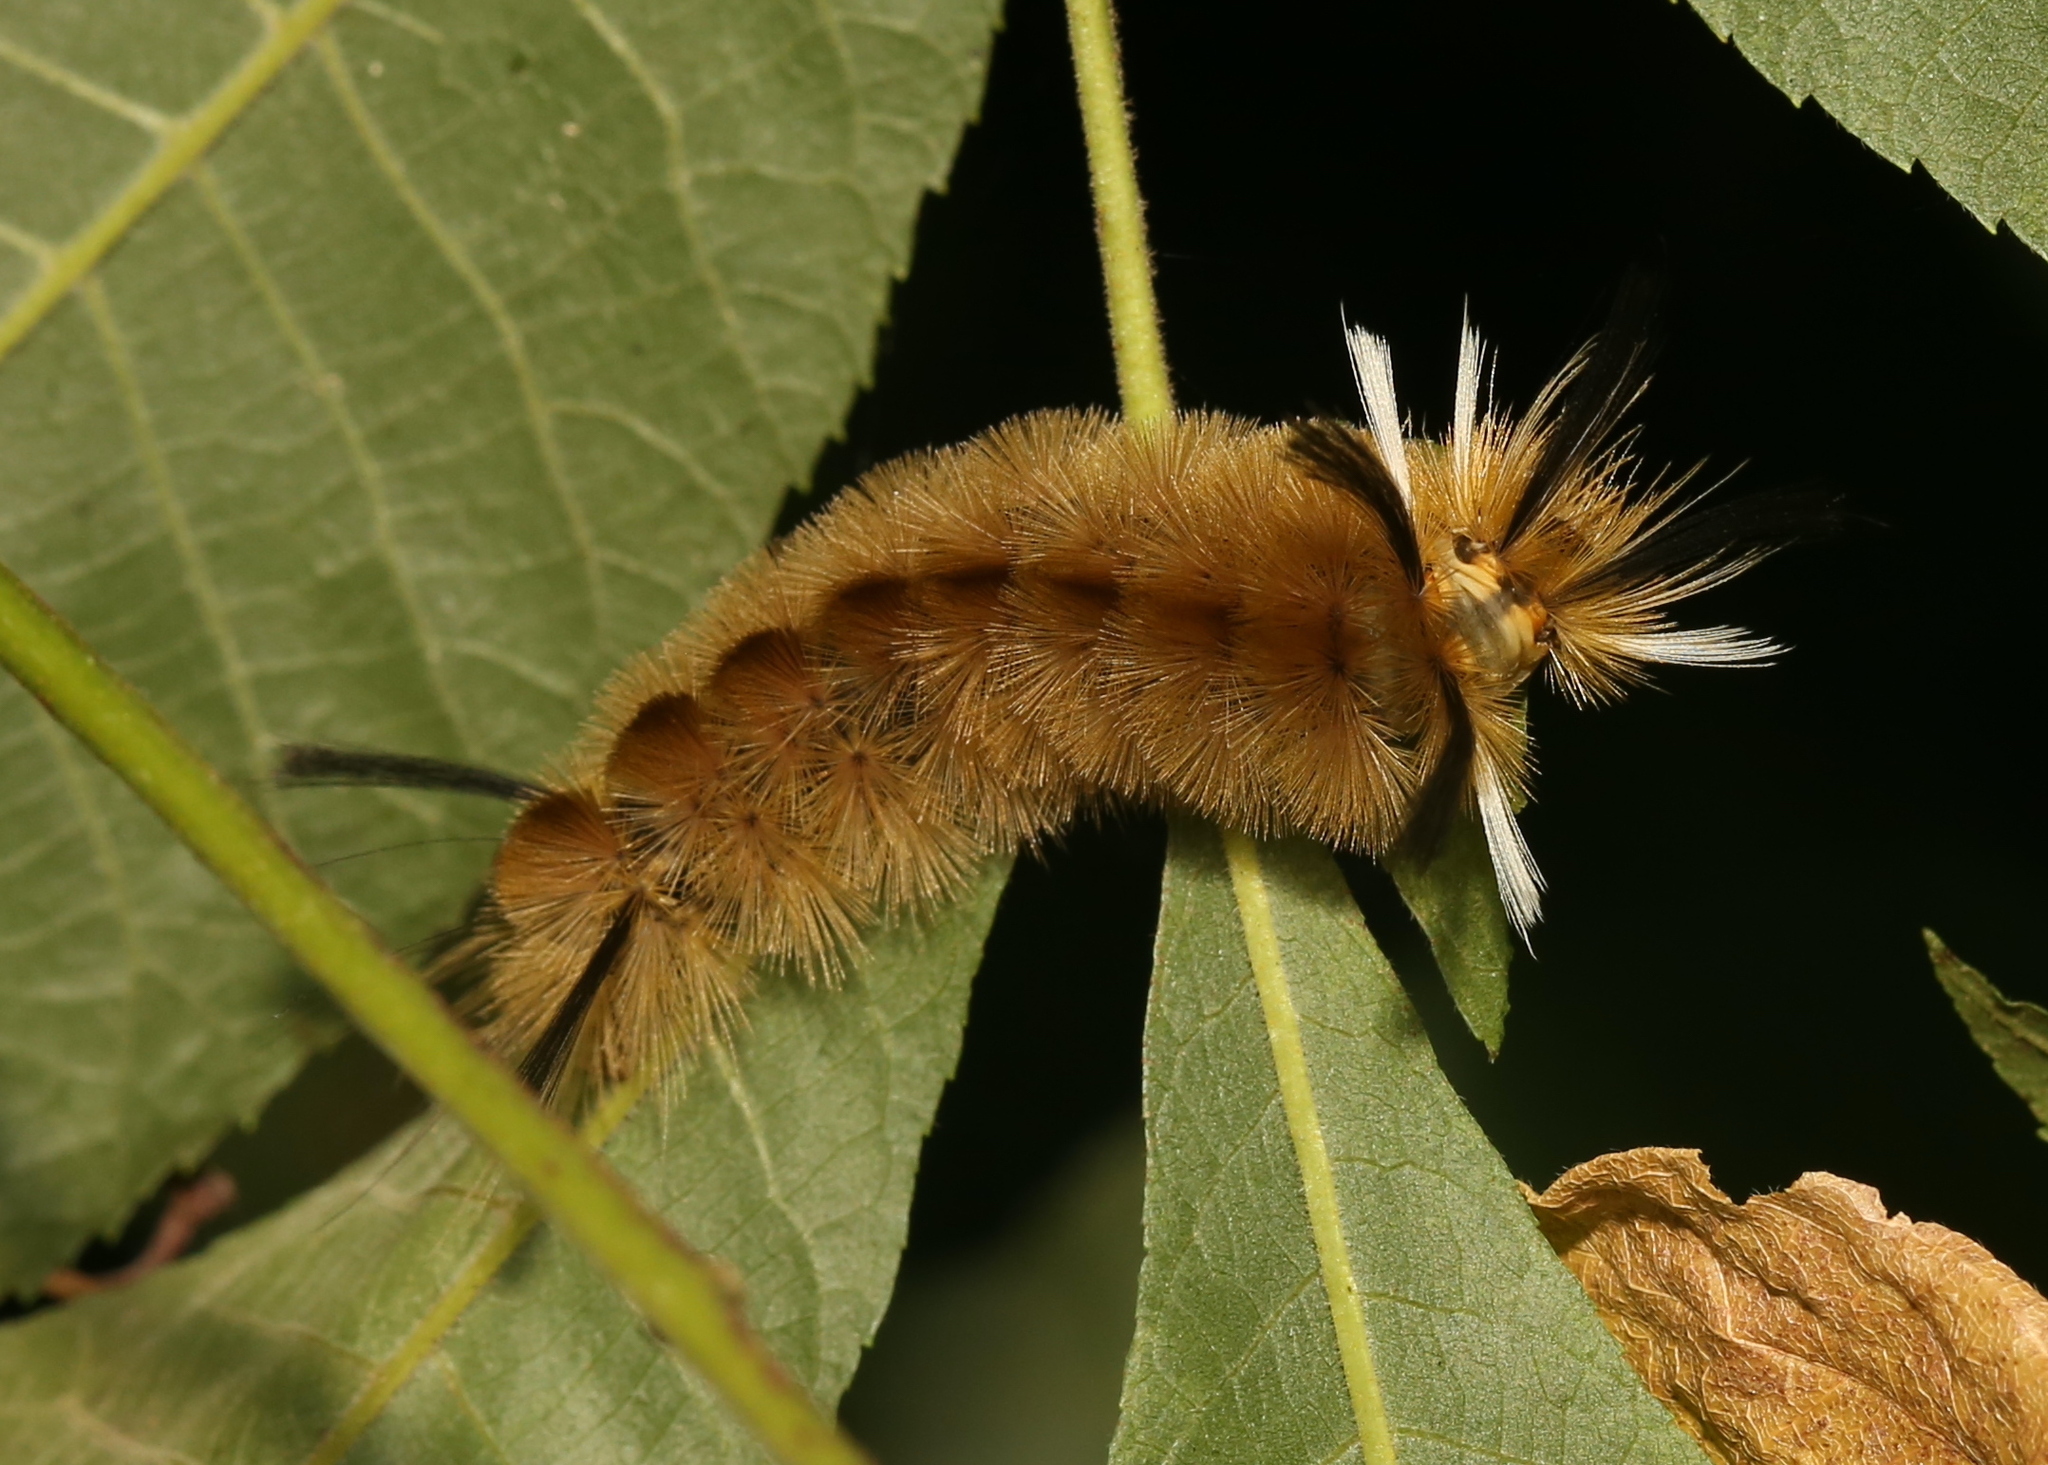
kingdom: Animalia
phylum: Arthropoda
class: Insecta
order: Lepidoptera
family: Erebidae
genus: Halysidota
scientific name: Halysidota tessellaris
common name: Banded tussock moth
